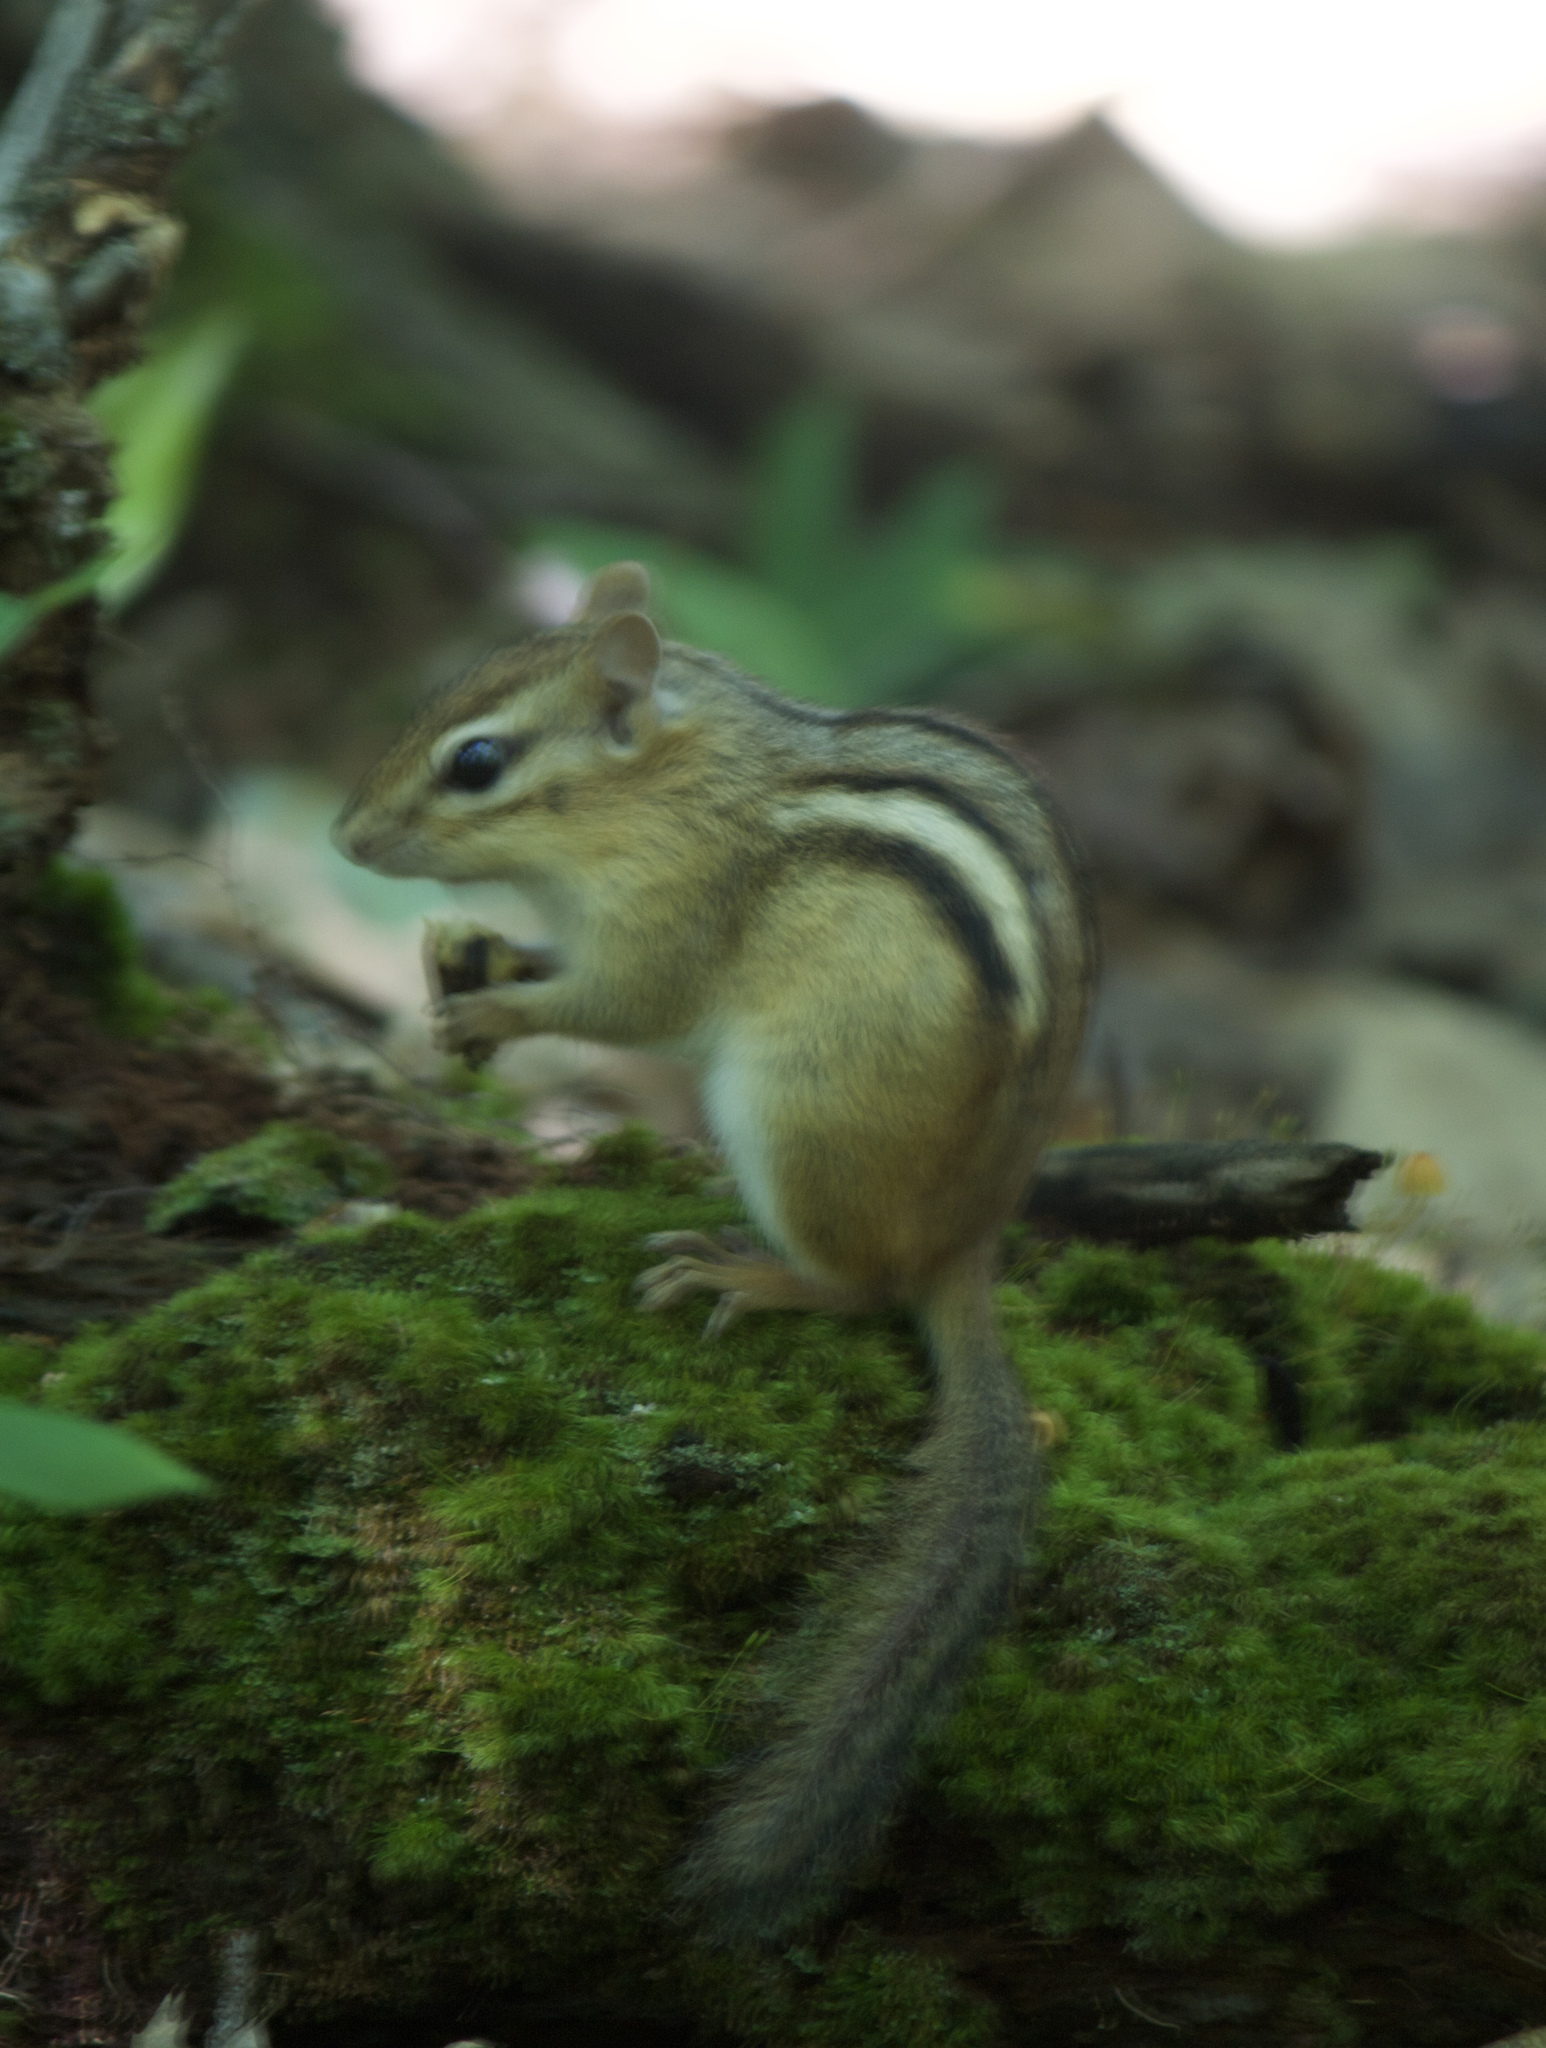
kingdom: Animalia
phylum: Chordata
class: Mammalia
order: Rodentia
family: Sciuridae
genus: Tamias
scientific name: Tamias striatus
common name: Eastern chipmunk
